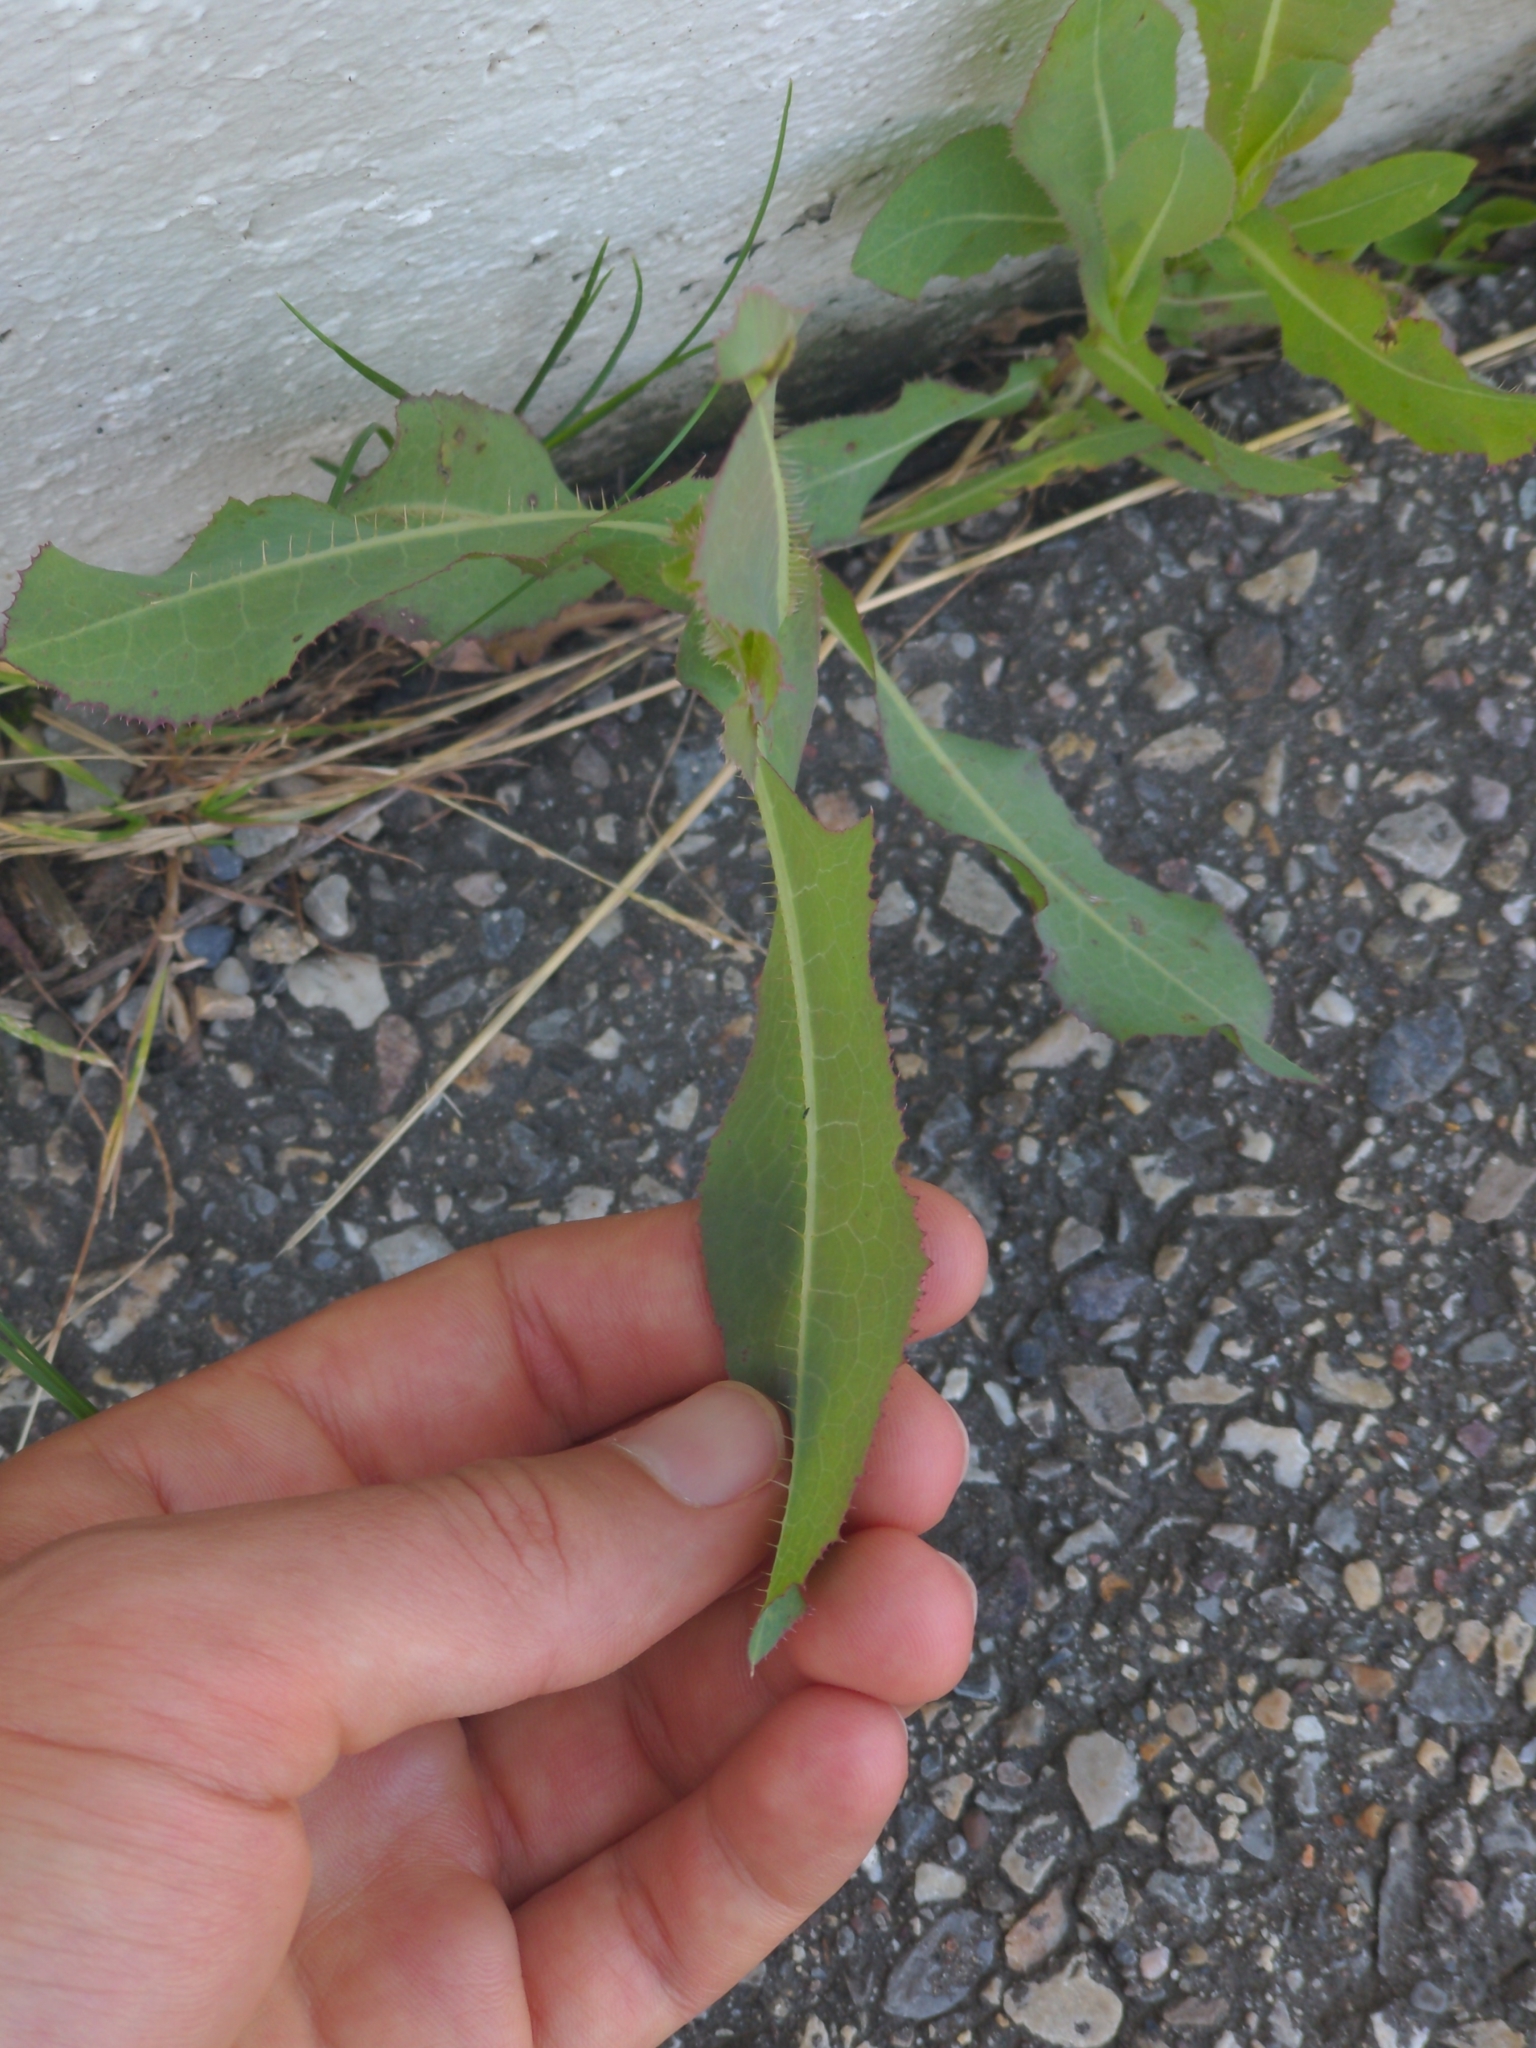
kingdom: Plantae
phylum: Tracheophyta
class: Magnoliopsida
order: Asterales
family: Asteraceae
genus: Lactuca
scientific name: Lactuca serriola
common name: Prickly lettuce
